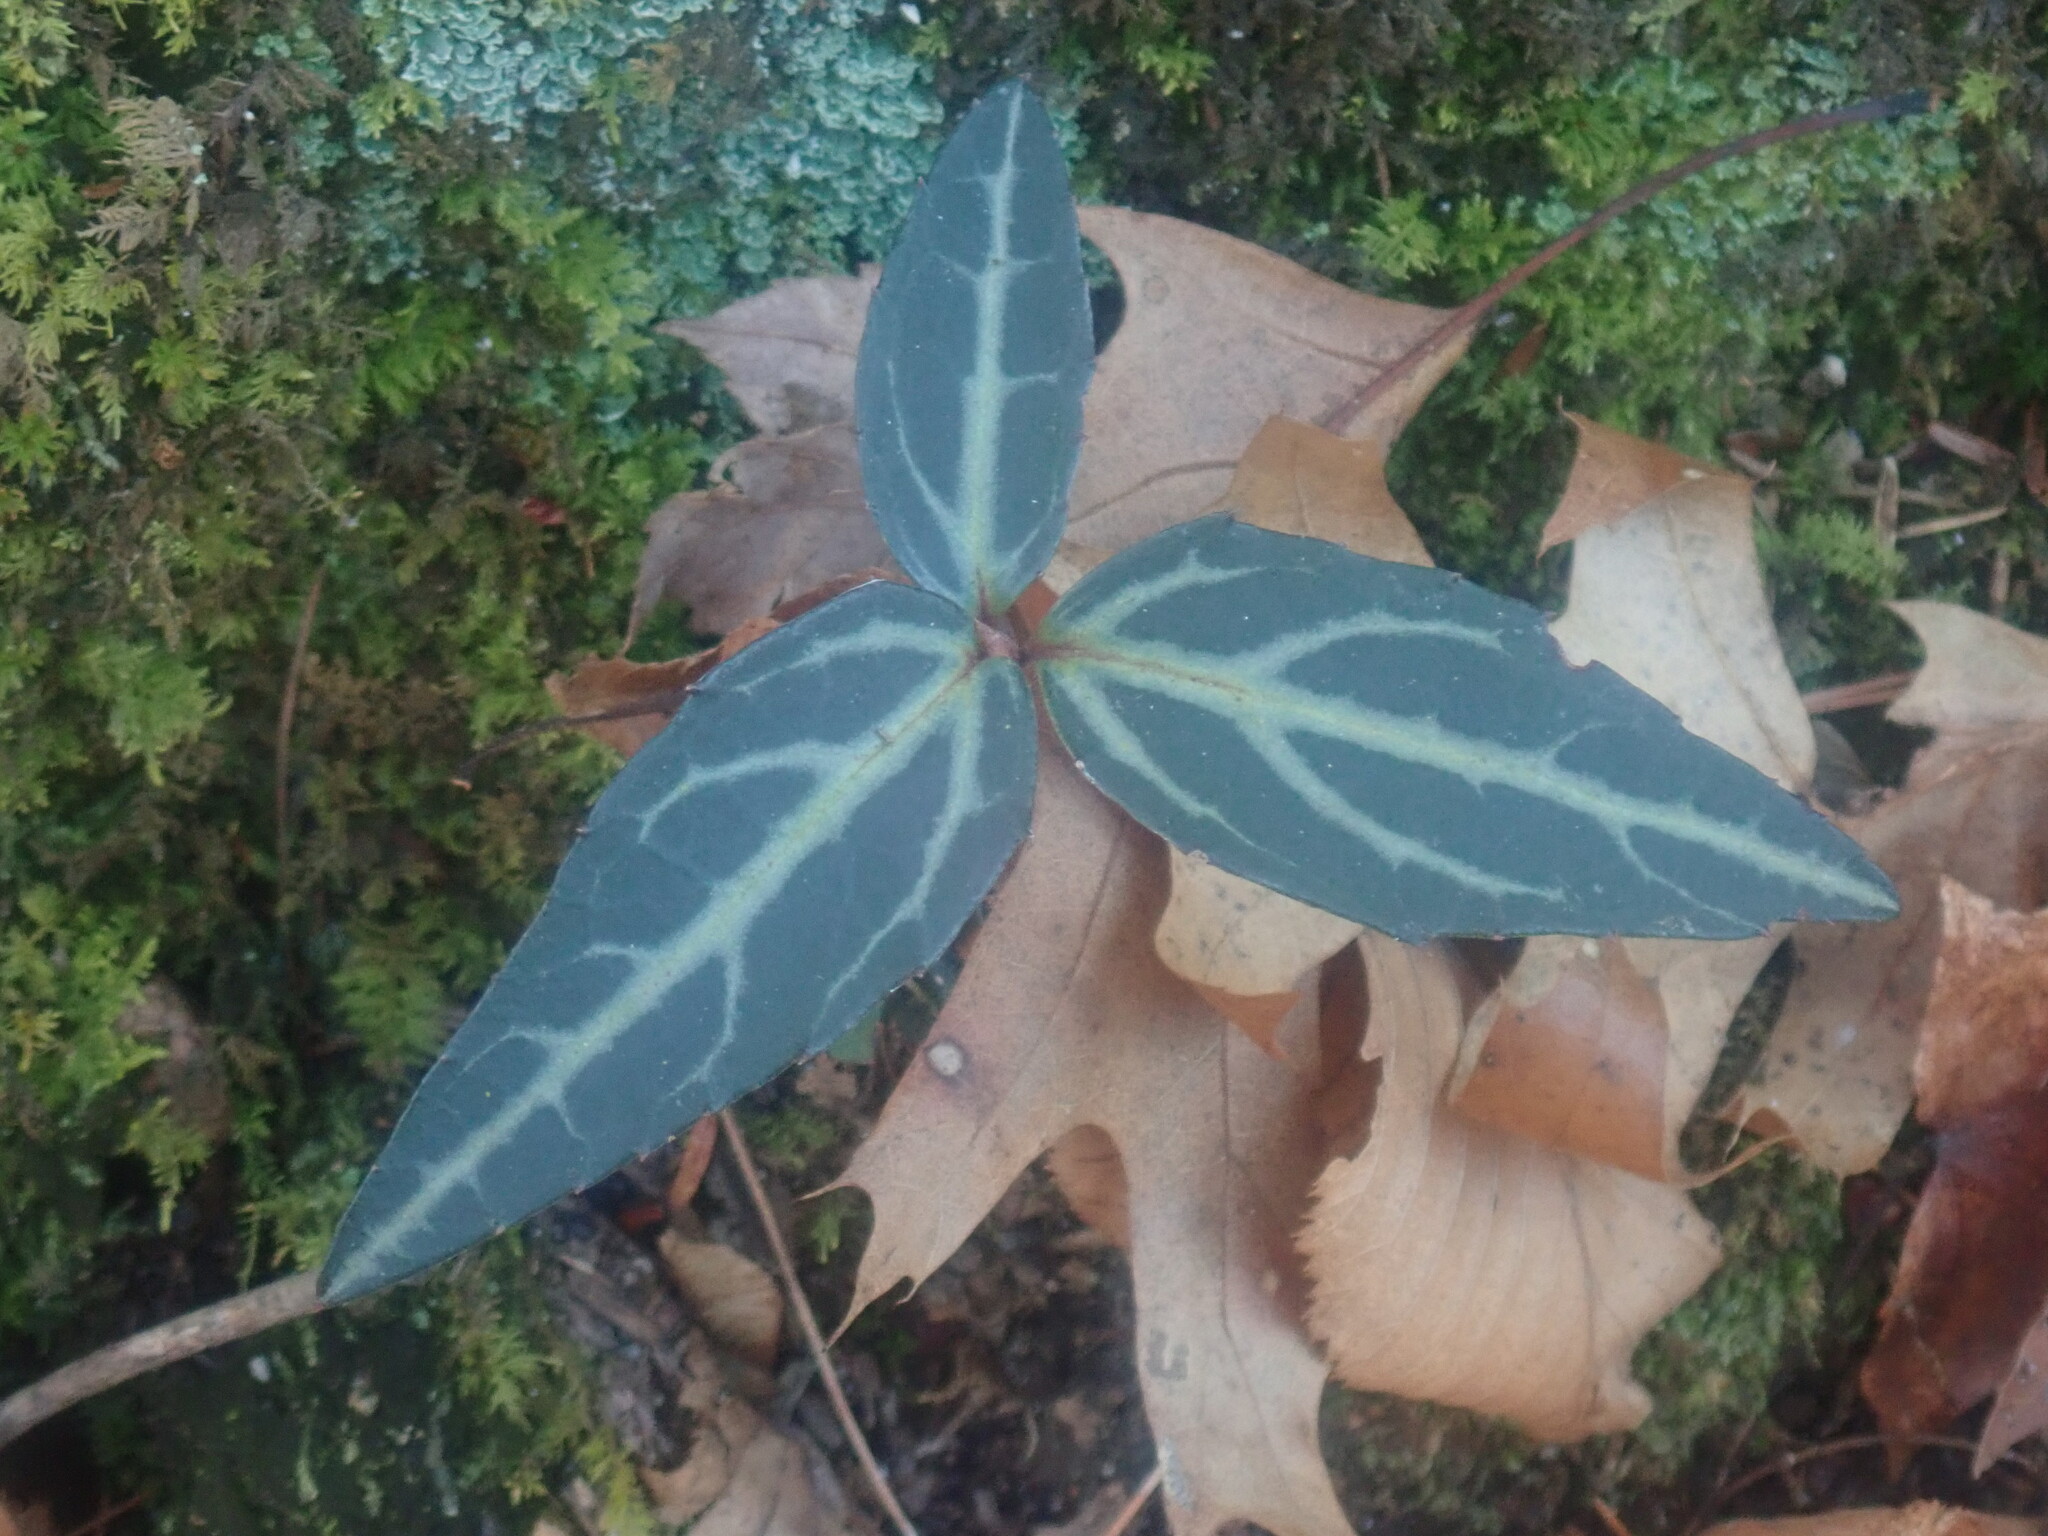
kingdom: Plantae
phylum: Tracheophyta
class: Magnoliopsida
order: Ericales
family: Ericaceae
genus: Chimaphila
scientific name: Chimaphila maculata
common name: Spotted pipsissewa
